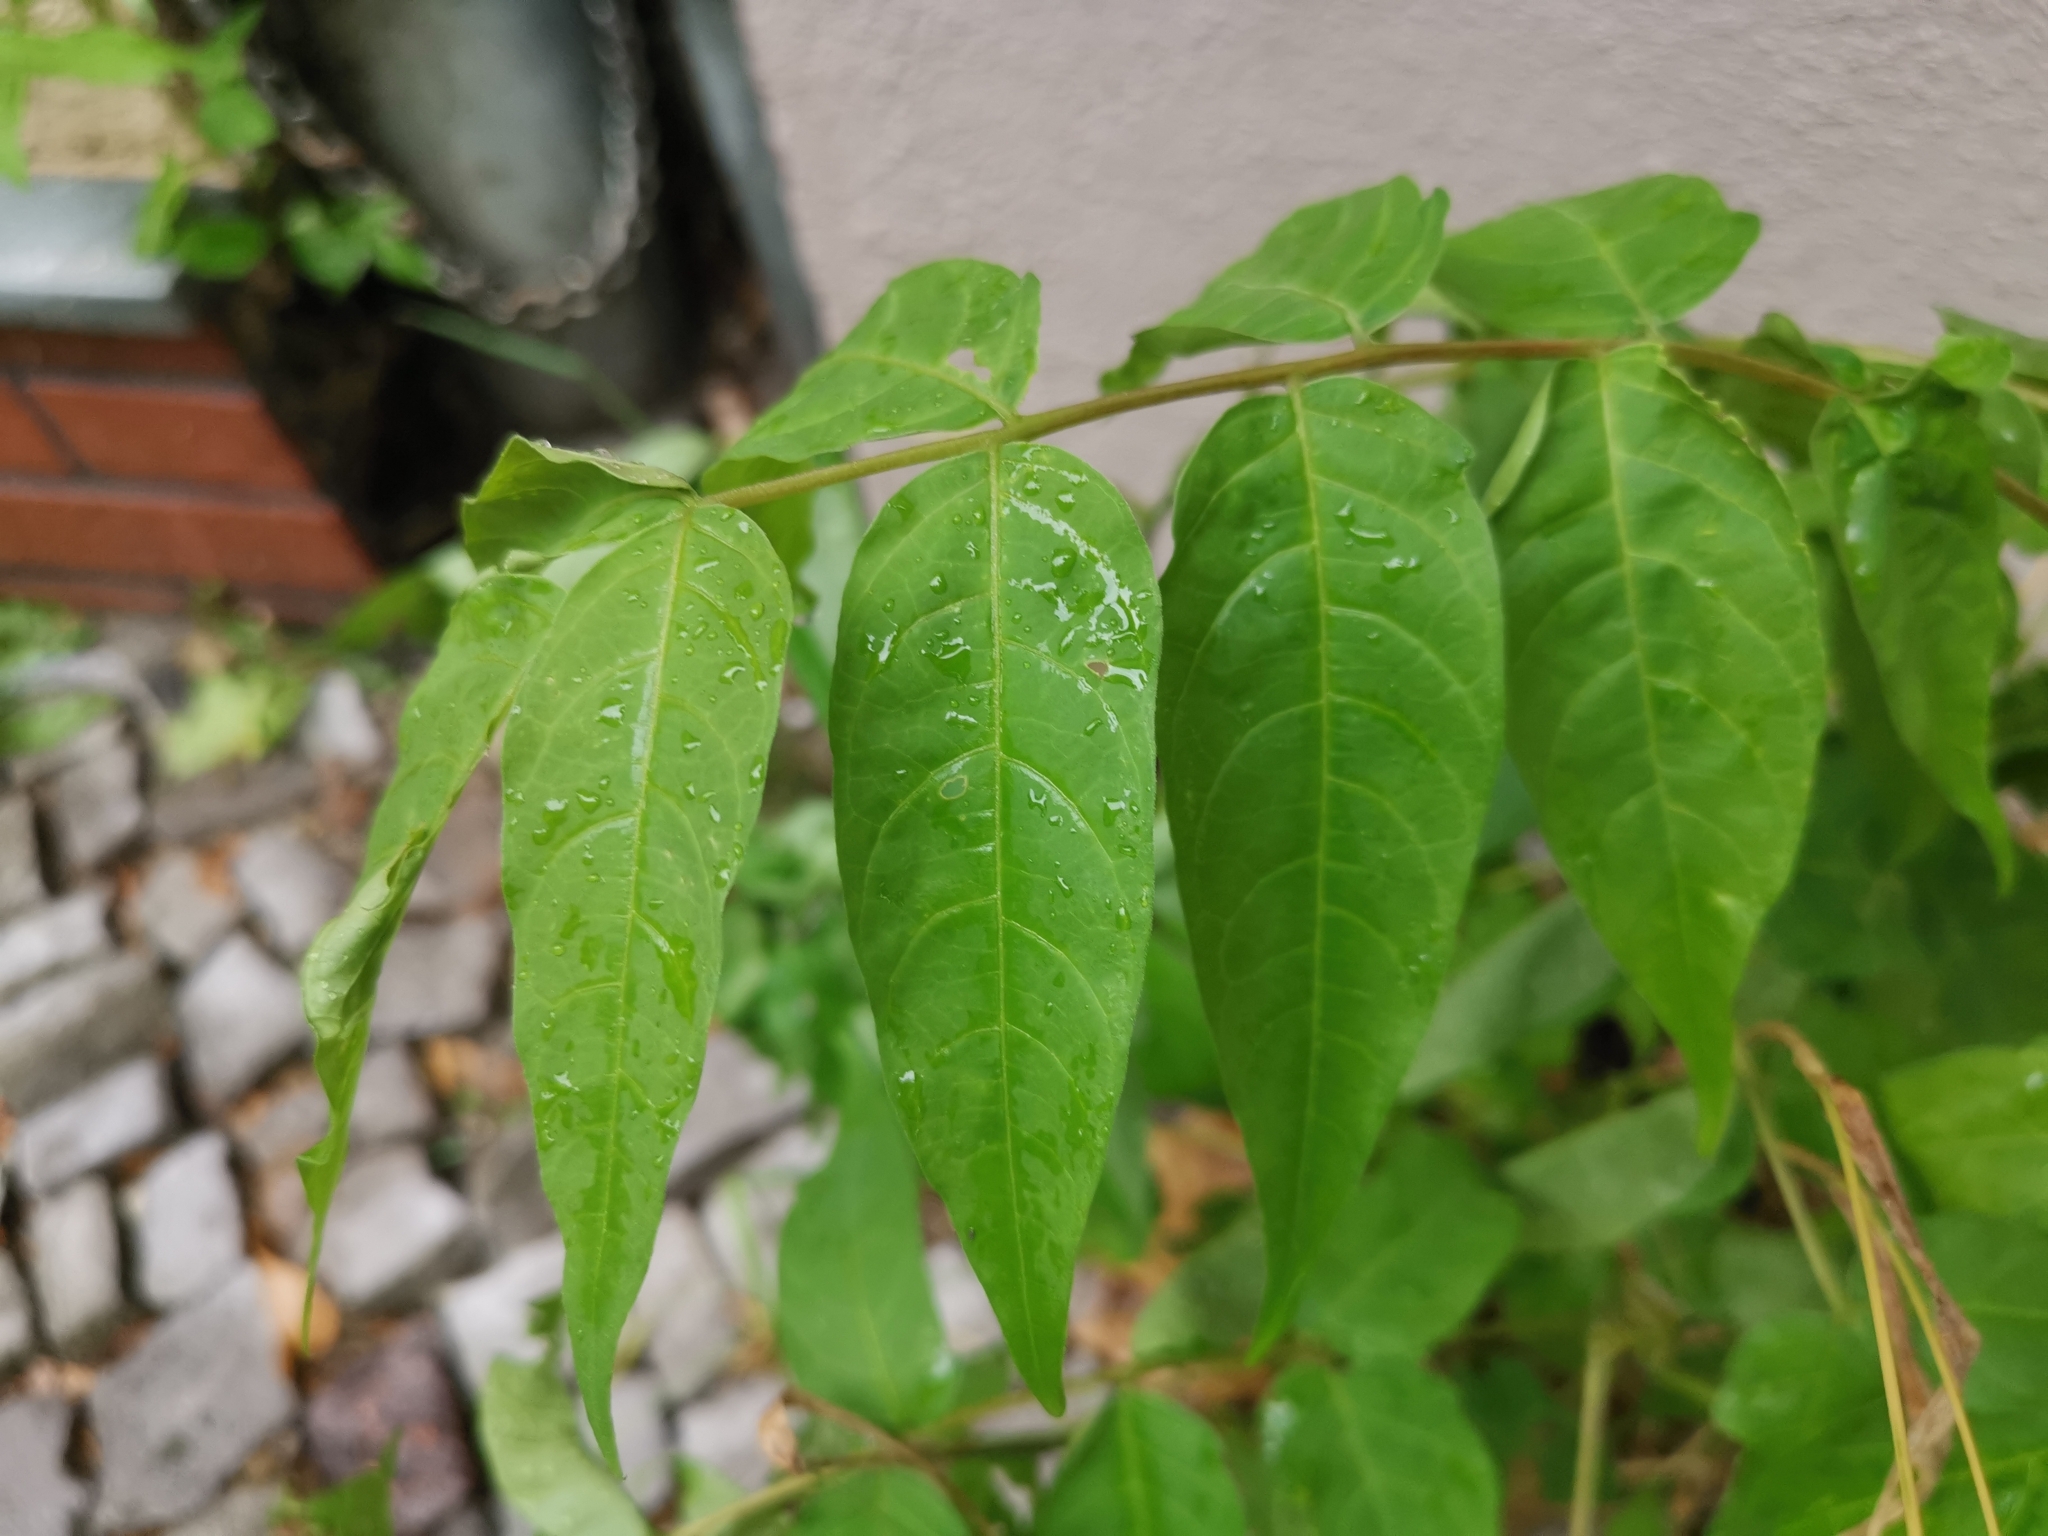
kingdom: Plantae
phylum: Tracheophyta
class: Magnoliopsida
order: Sapindales
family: Simaroubaceae
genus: Ailanthus
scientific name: Ailanthus altissima
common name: Tree-of-heaven
